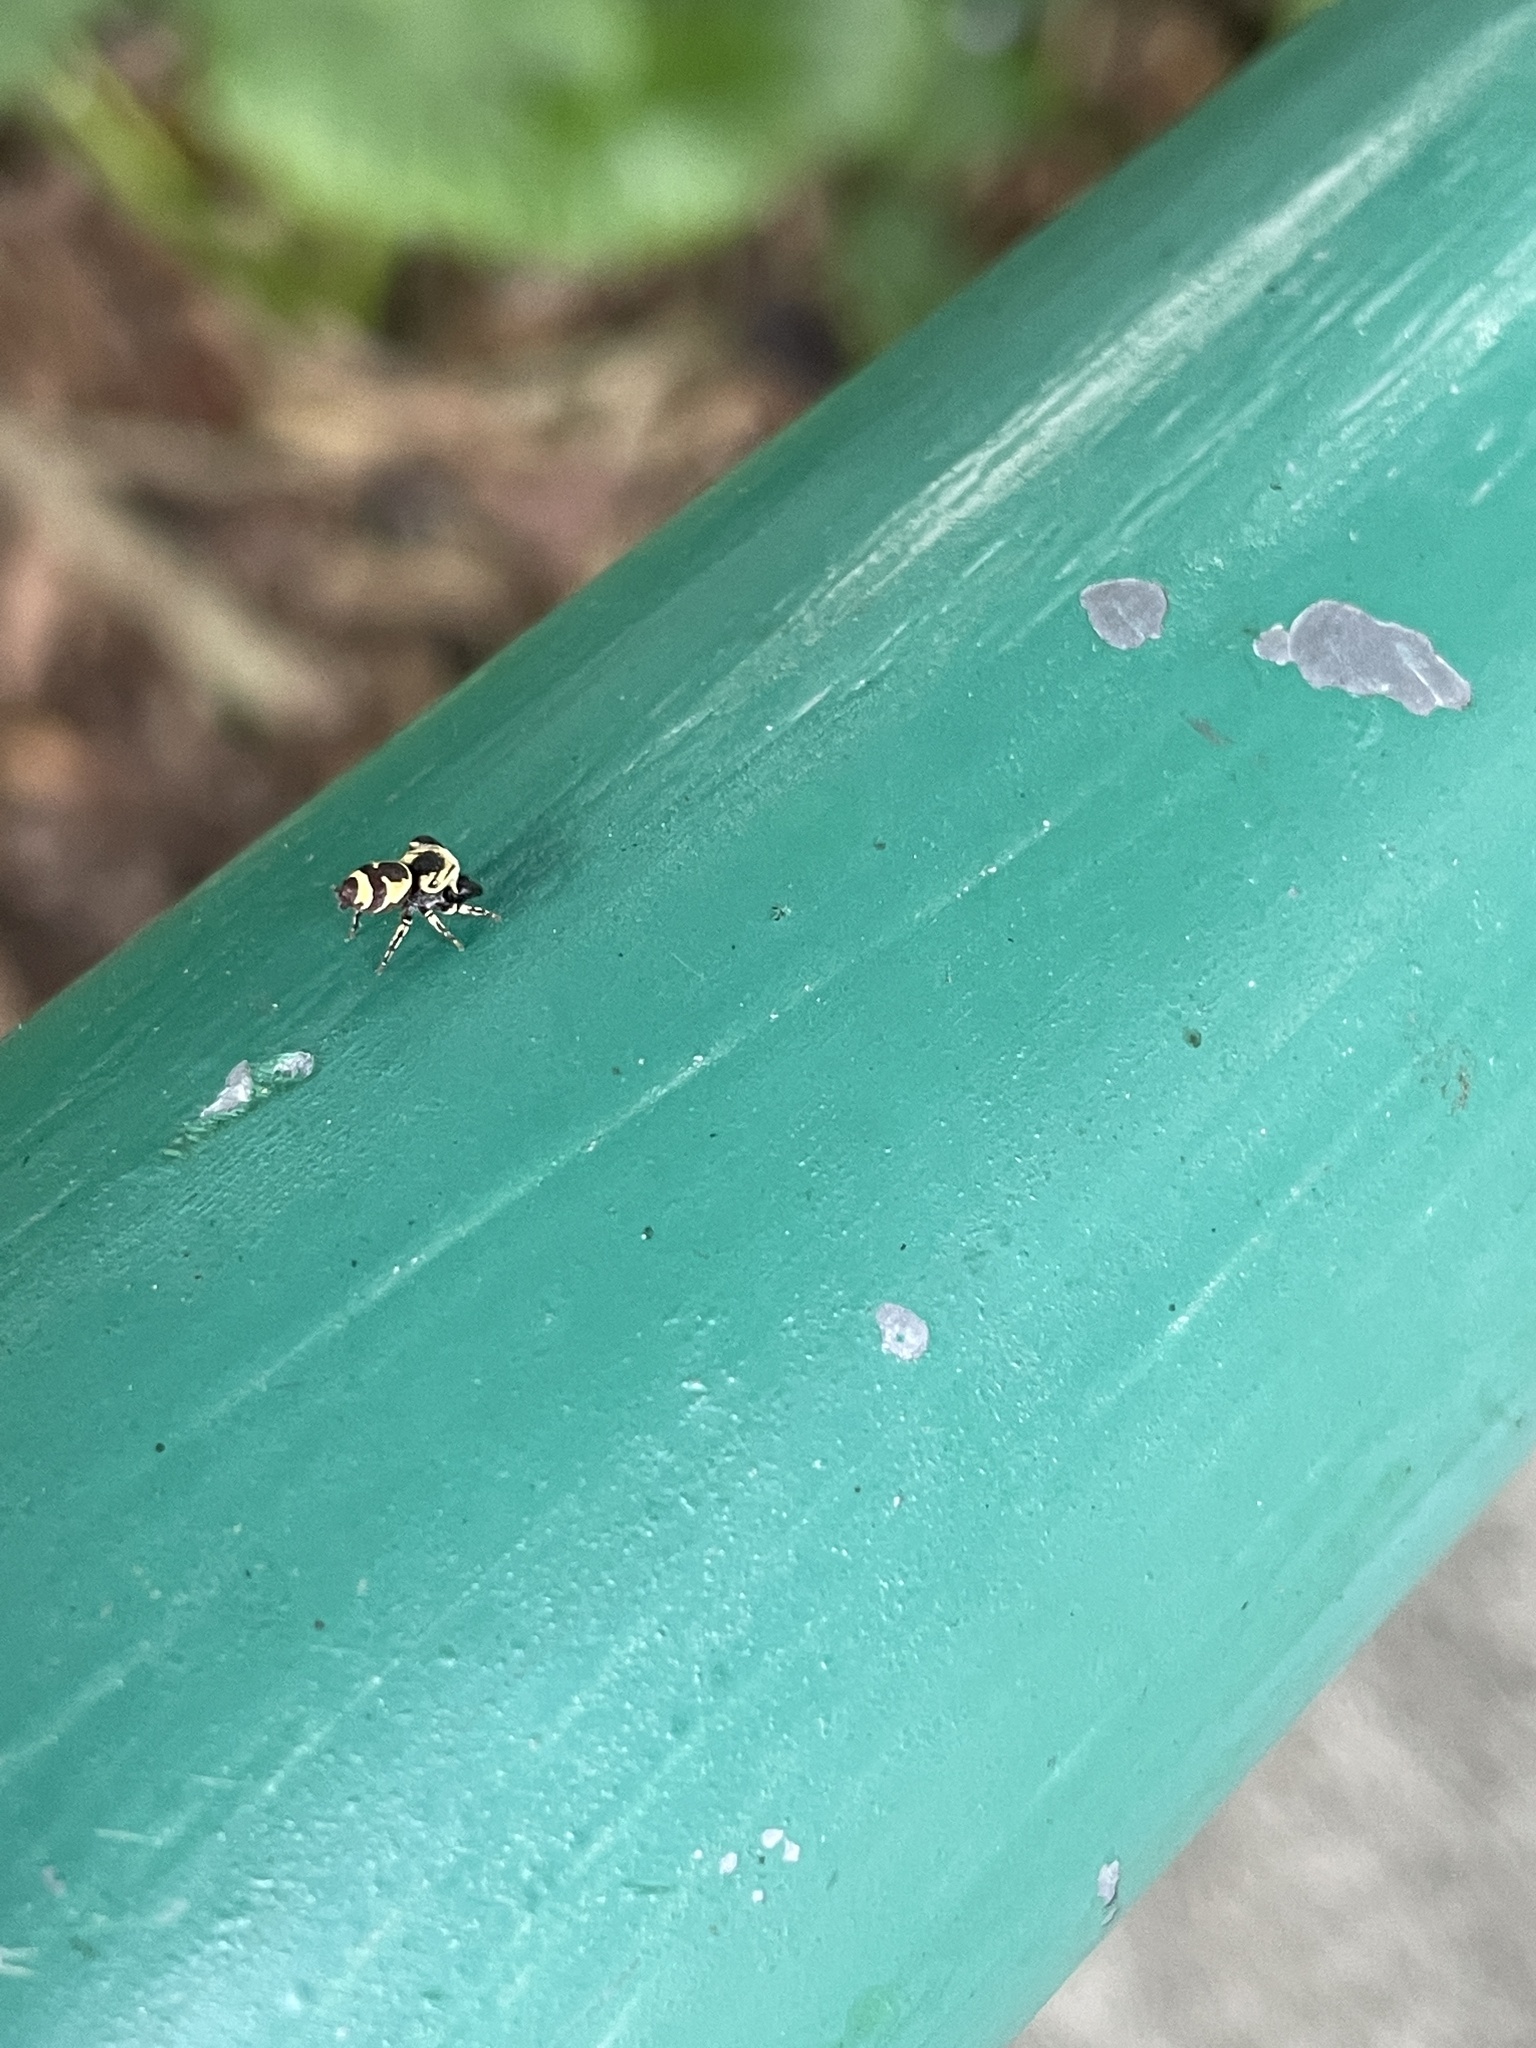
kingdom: Animalia
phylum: Arthropoda
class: Arachnida
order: Araneae
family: Salticidae
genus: Rhene
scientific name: Rhene flavicomans
